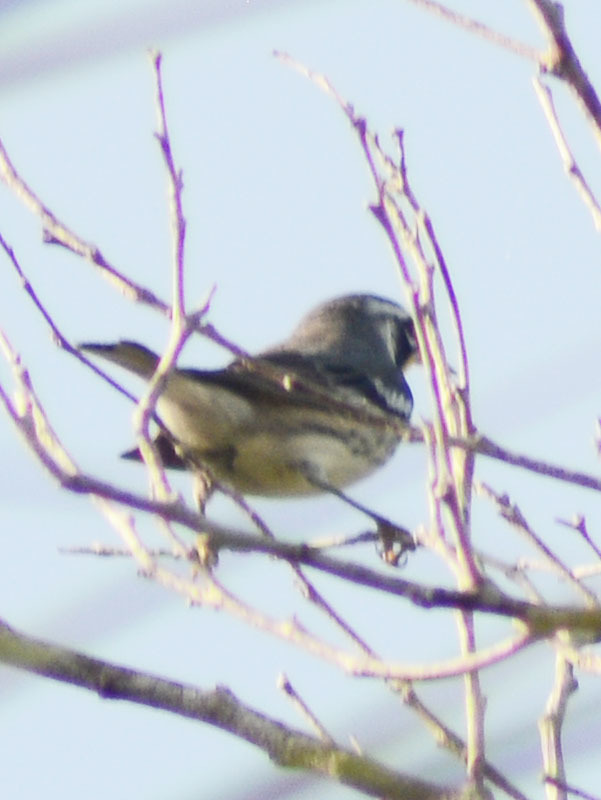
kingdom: Animalia
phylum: Chordata
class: Aves
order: Passeriformes
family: Parulidae
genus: Setophaga
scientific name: Setophaga dominica
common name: Yellow-throated warbler
